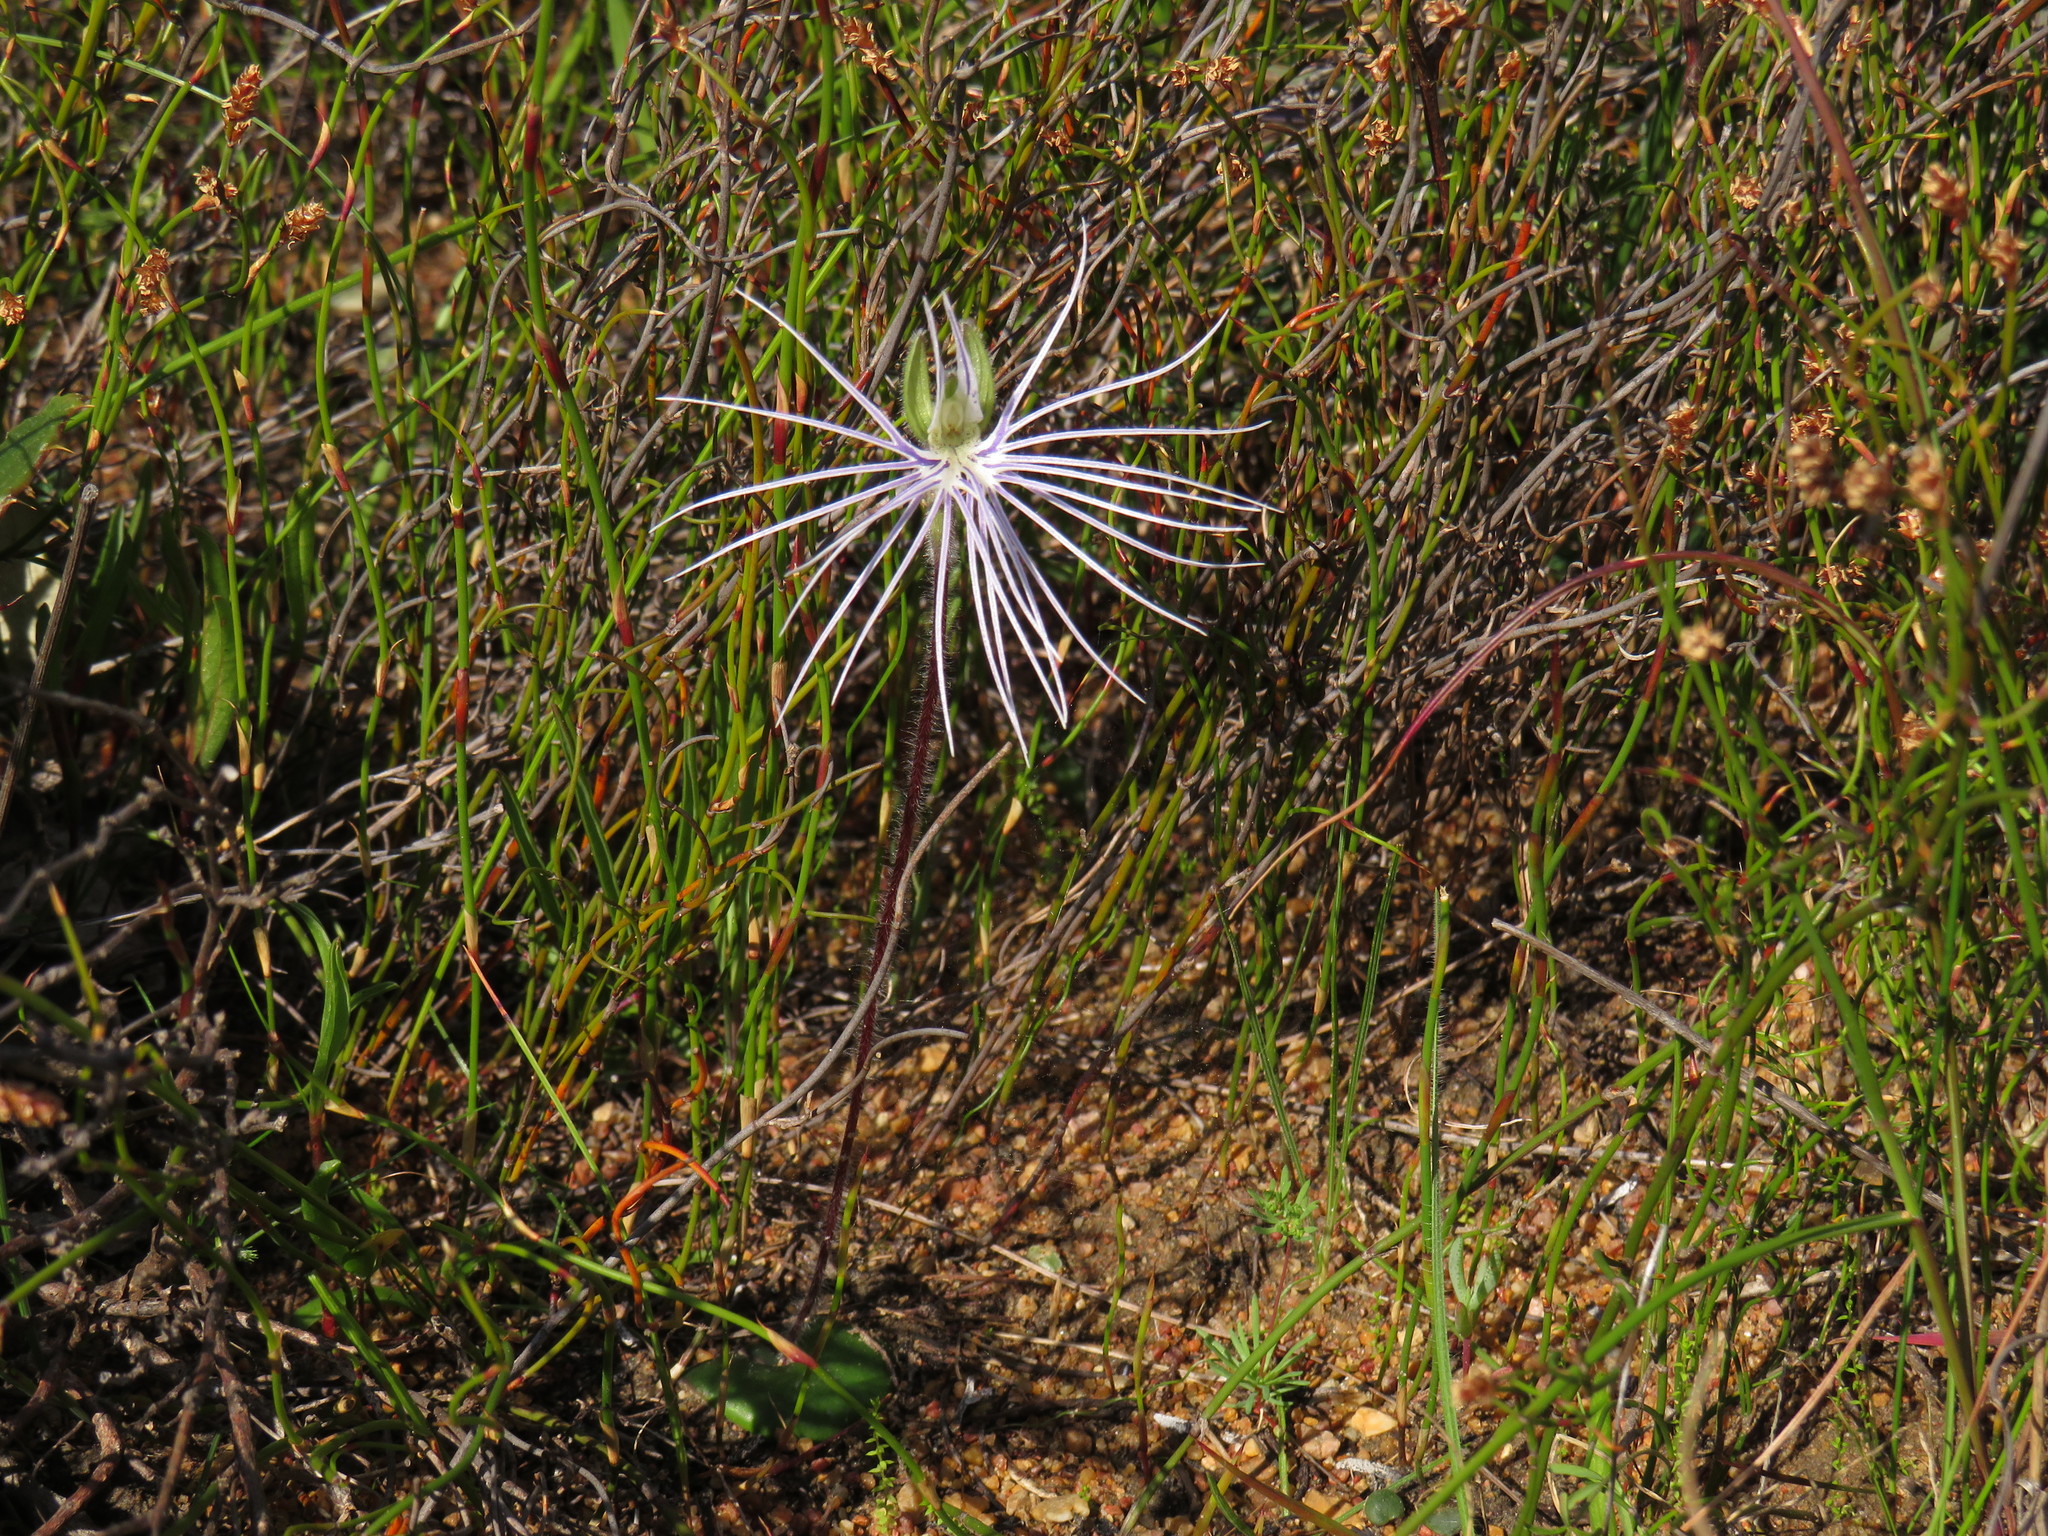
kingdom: Plantae
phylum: Tracheophyta
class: Liliopsida
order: Asparagales
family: Orchidaceae
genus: Holothrix
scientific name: Holothrix burmanniana
